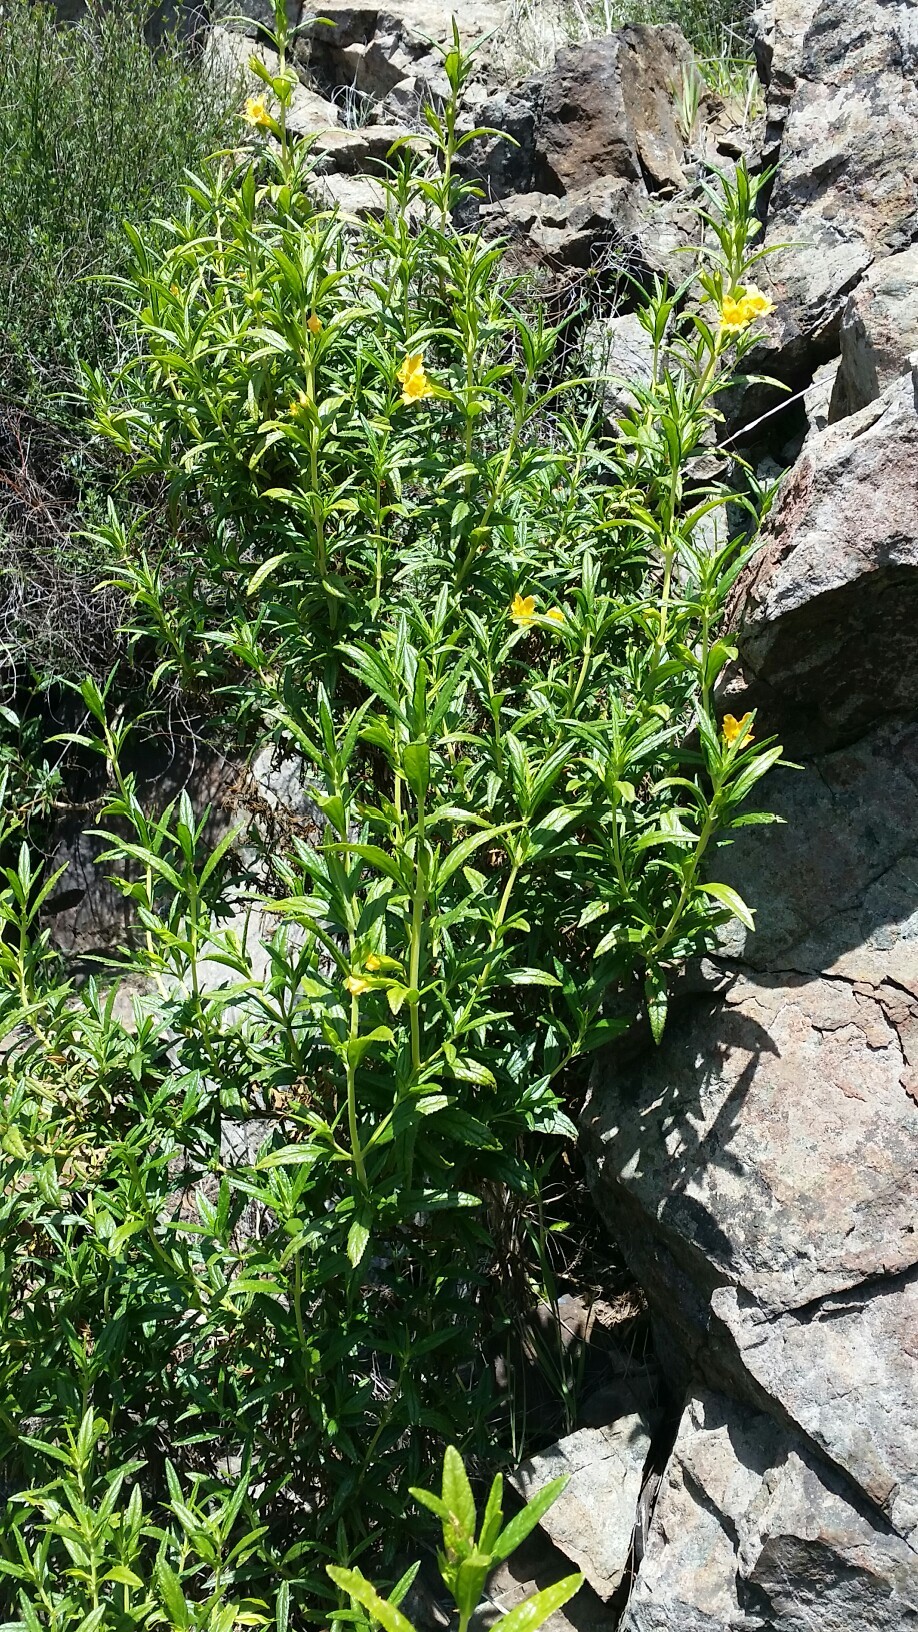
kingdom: Plantae
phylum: Tracheophyta
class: Magnoliopsida
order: Lamiales
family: Phrymaceae
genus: Diplacus
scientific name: Diplacus aurantiacus
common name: Bush monkey-flower
